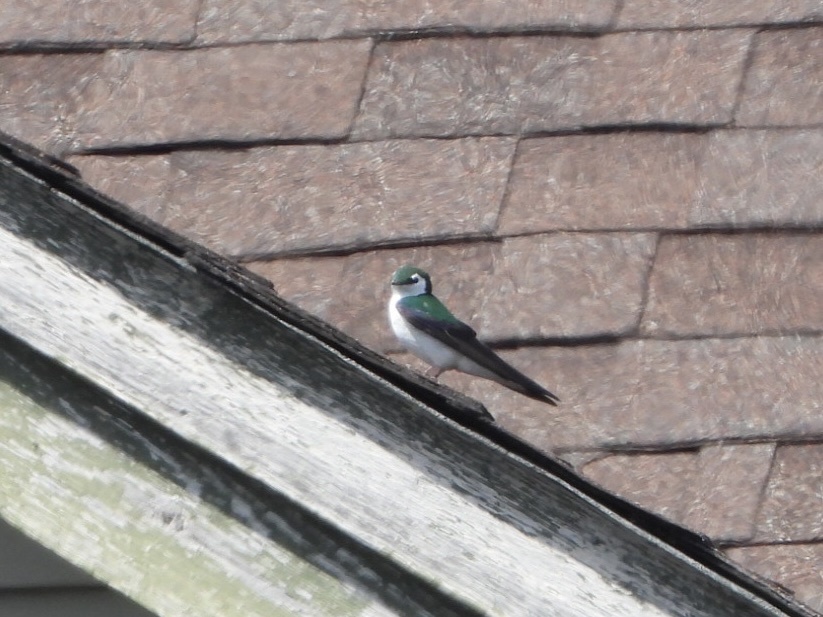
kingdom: Animalia
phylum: Chordata
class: Aves
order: Passeriformes
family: Hirundinidae
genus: Tachycineta
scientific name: Tachycineta thalassina
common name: Violet-green swallow
